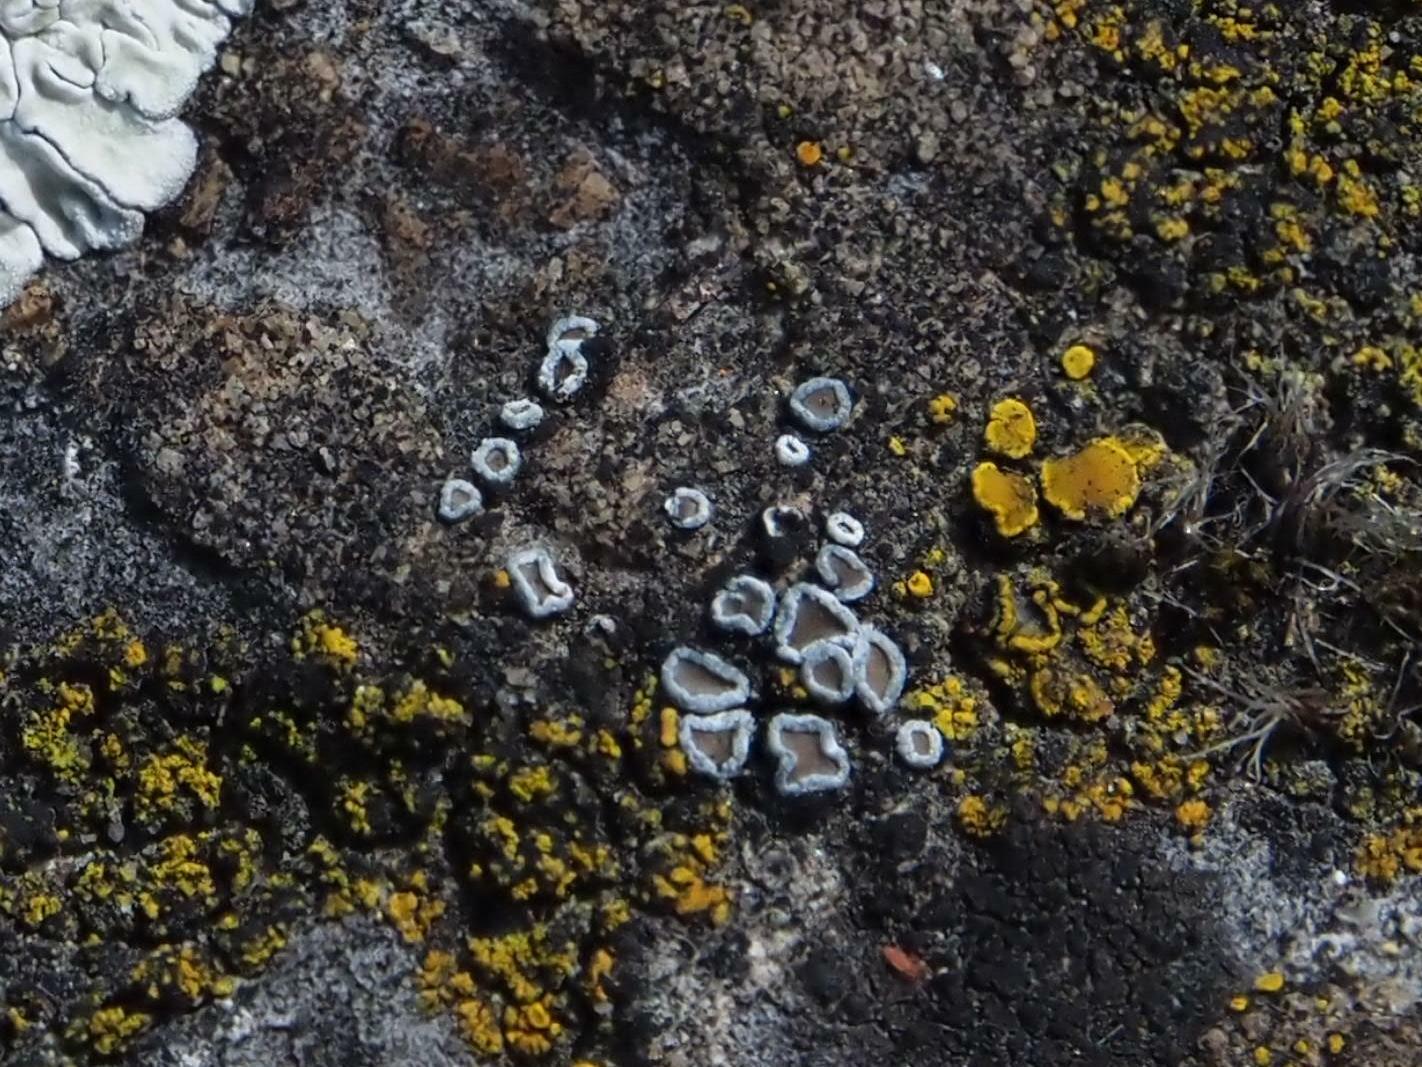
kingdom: Fungi
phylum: Ascomycota
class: Lecanoromycetes
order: Lecanorales
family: Lecanoraceae
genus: Polyozosia
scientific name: Polyozosia dispersa
